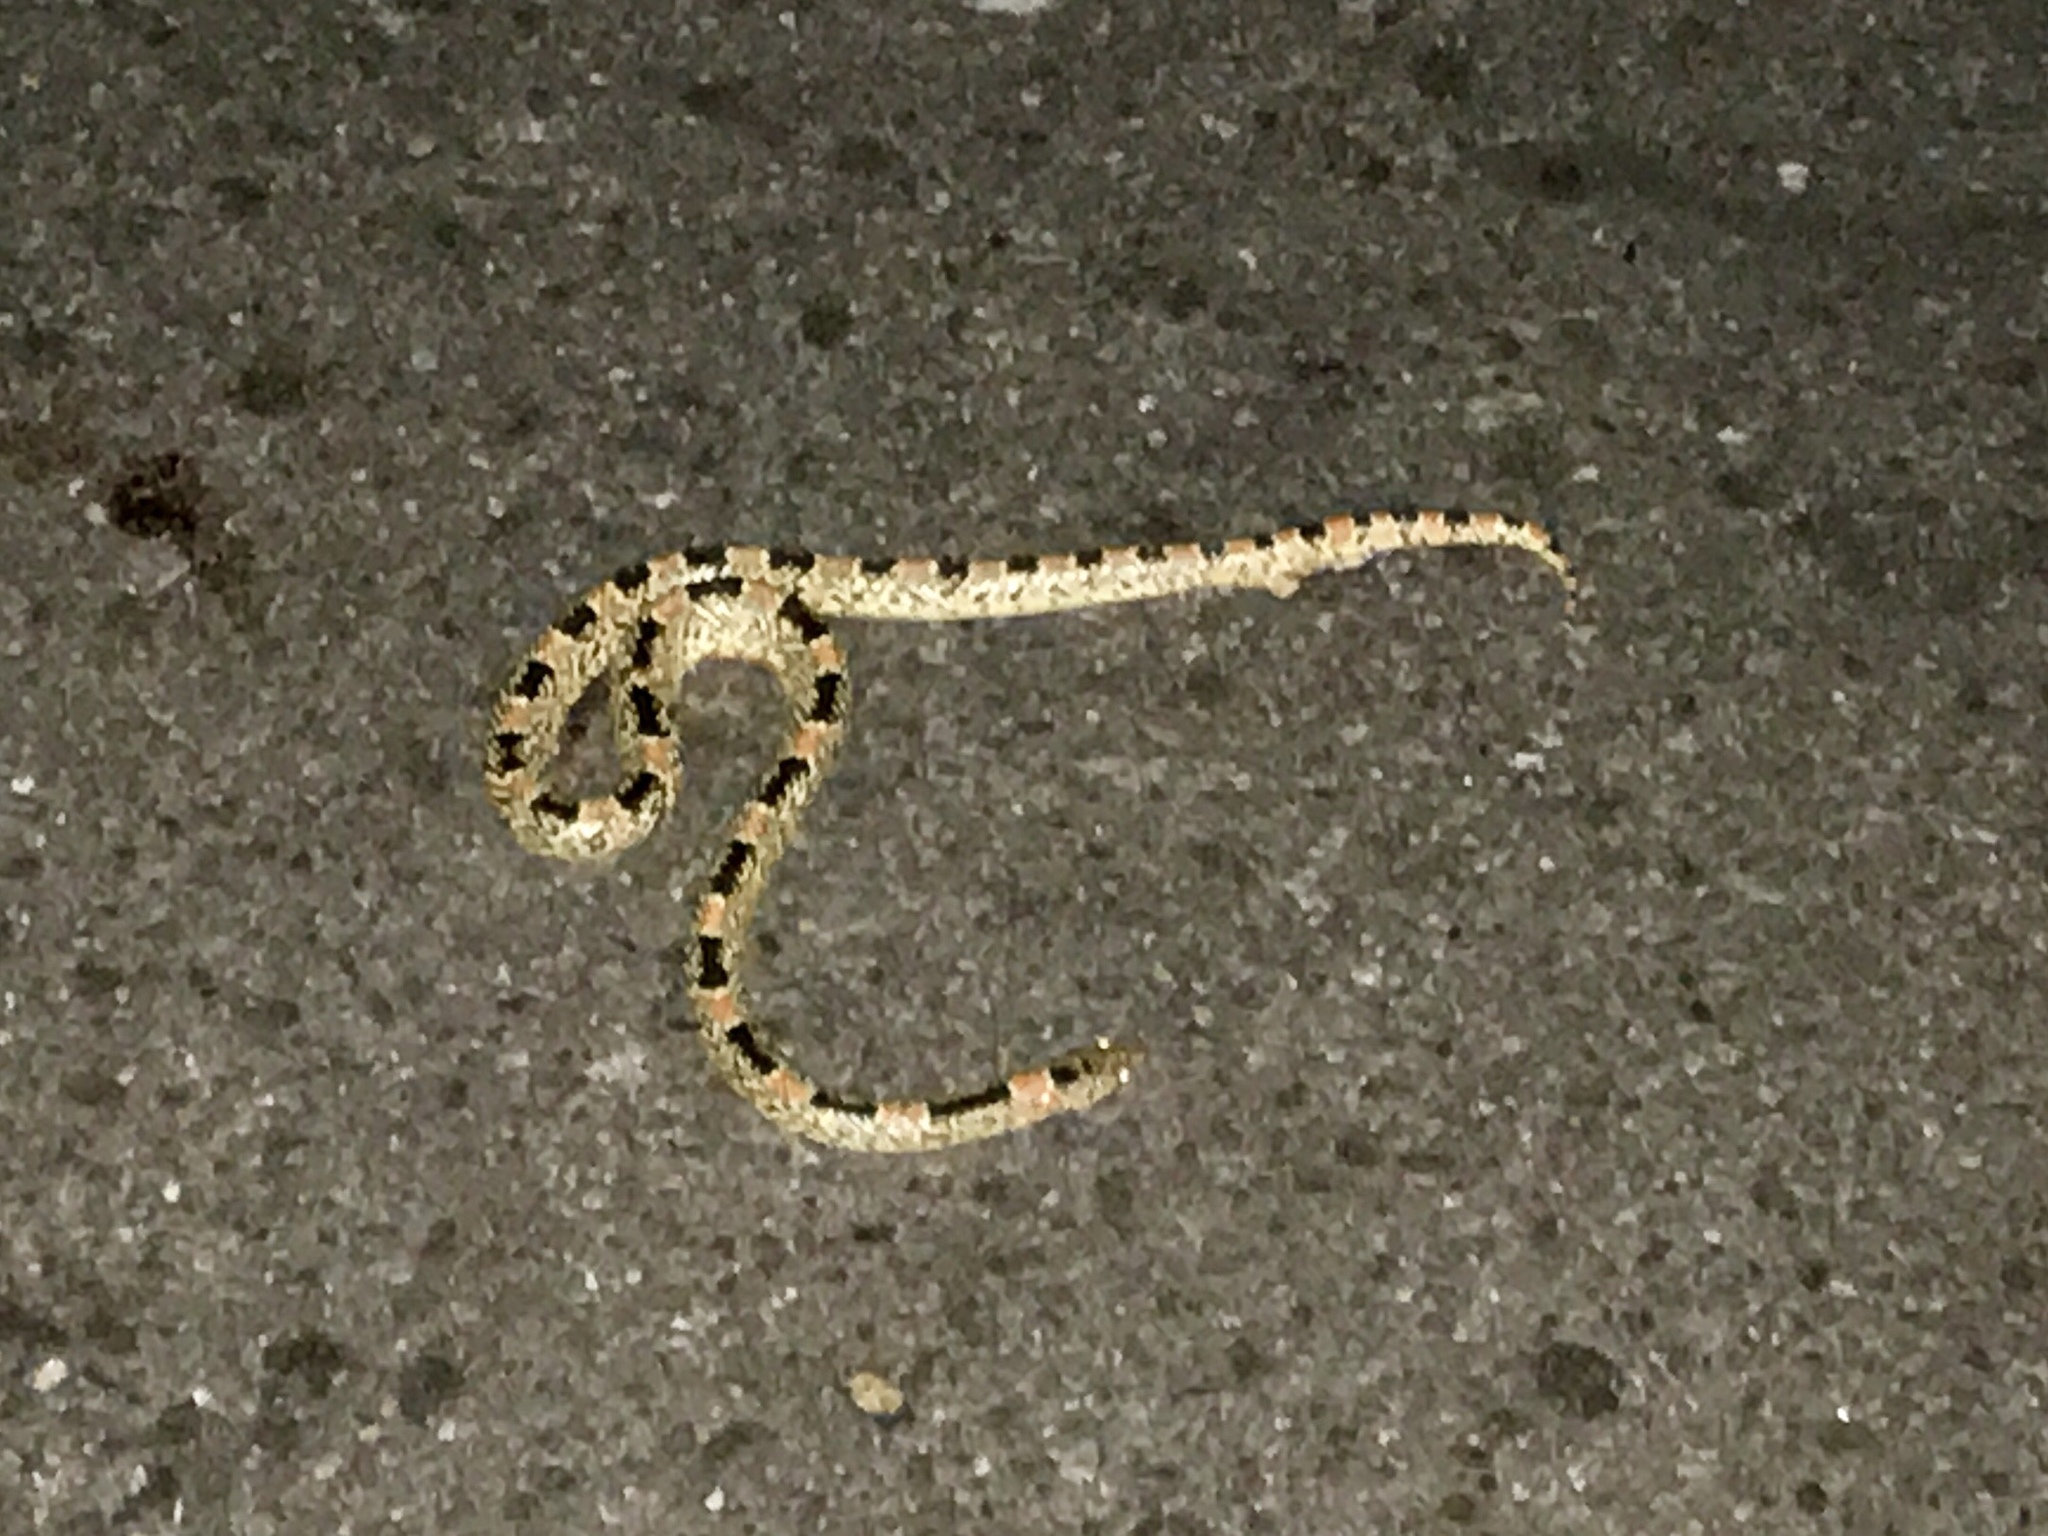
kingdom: Animalia
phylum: Chordata
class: Squamata
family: Colubridae
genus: Rhinocheilus
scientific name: Rhinocheilus lecontei
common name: Longnose snake
